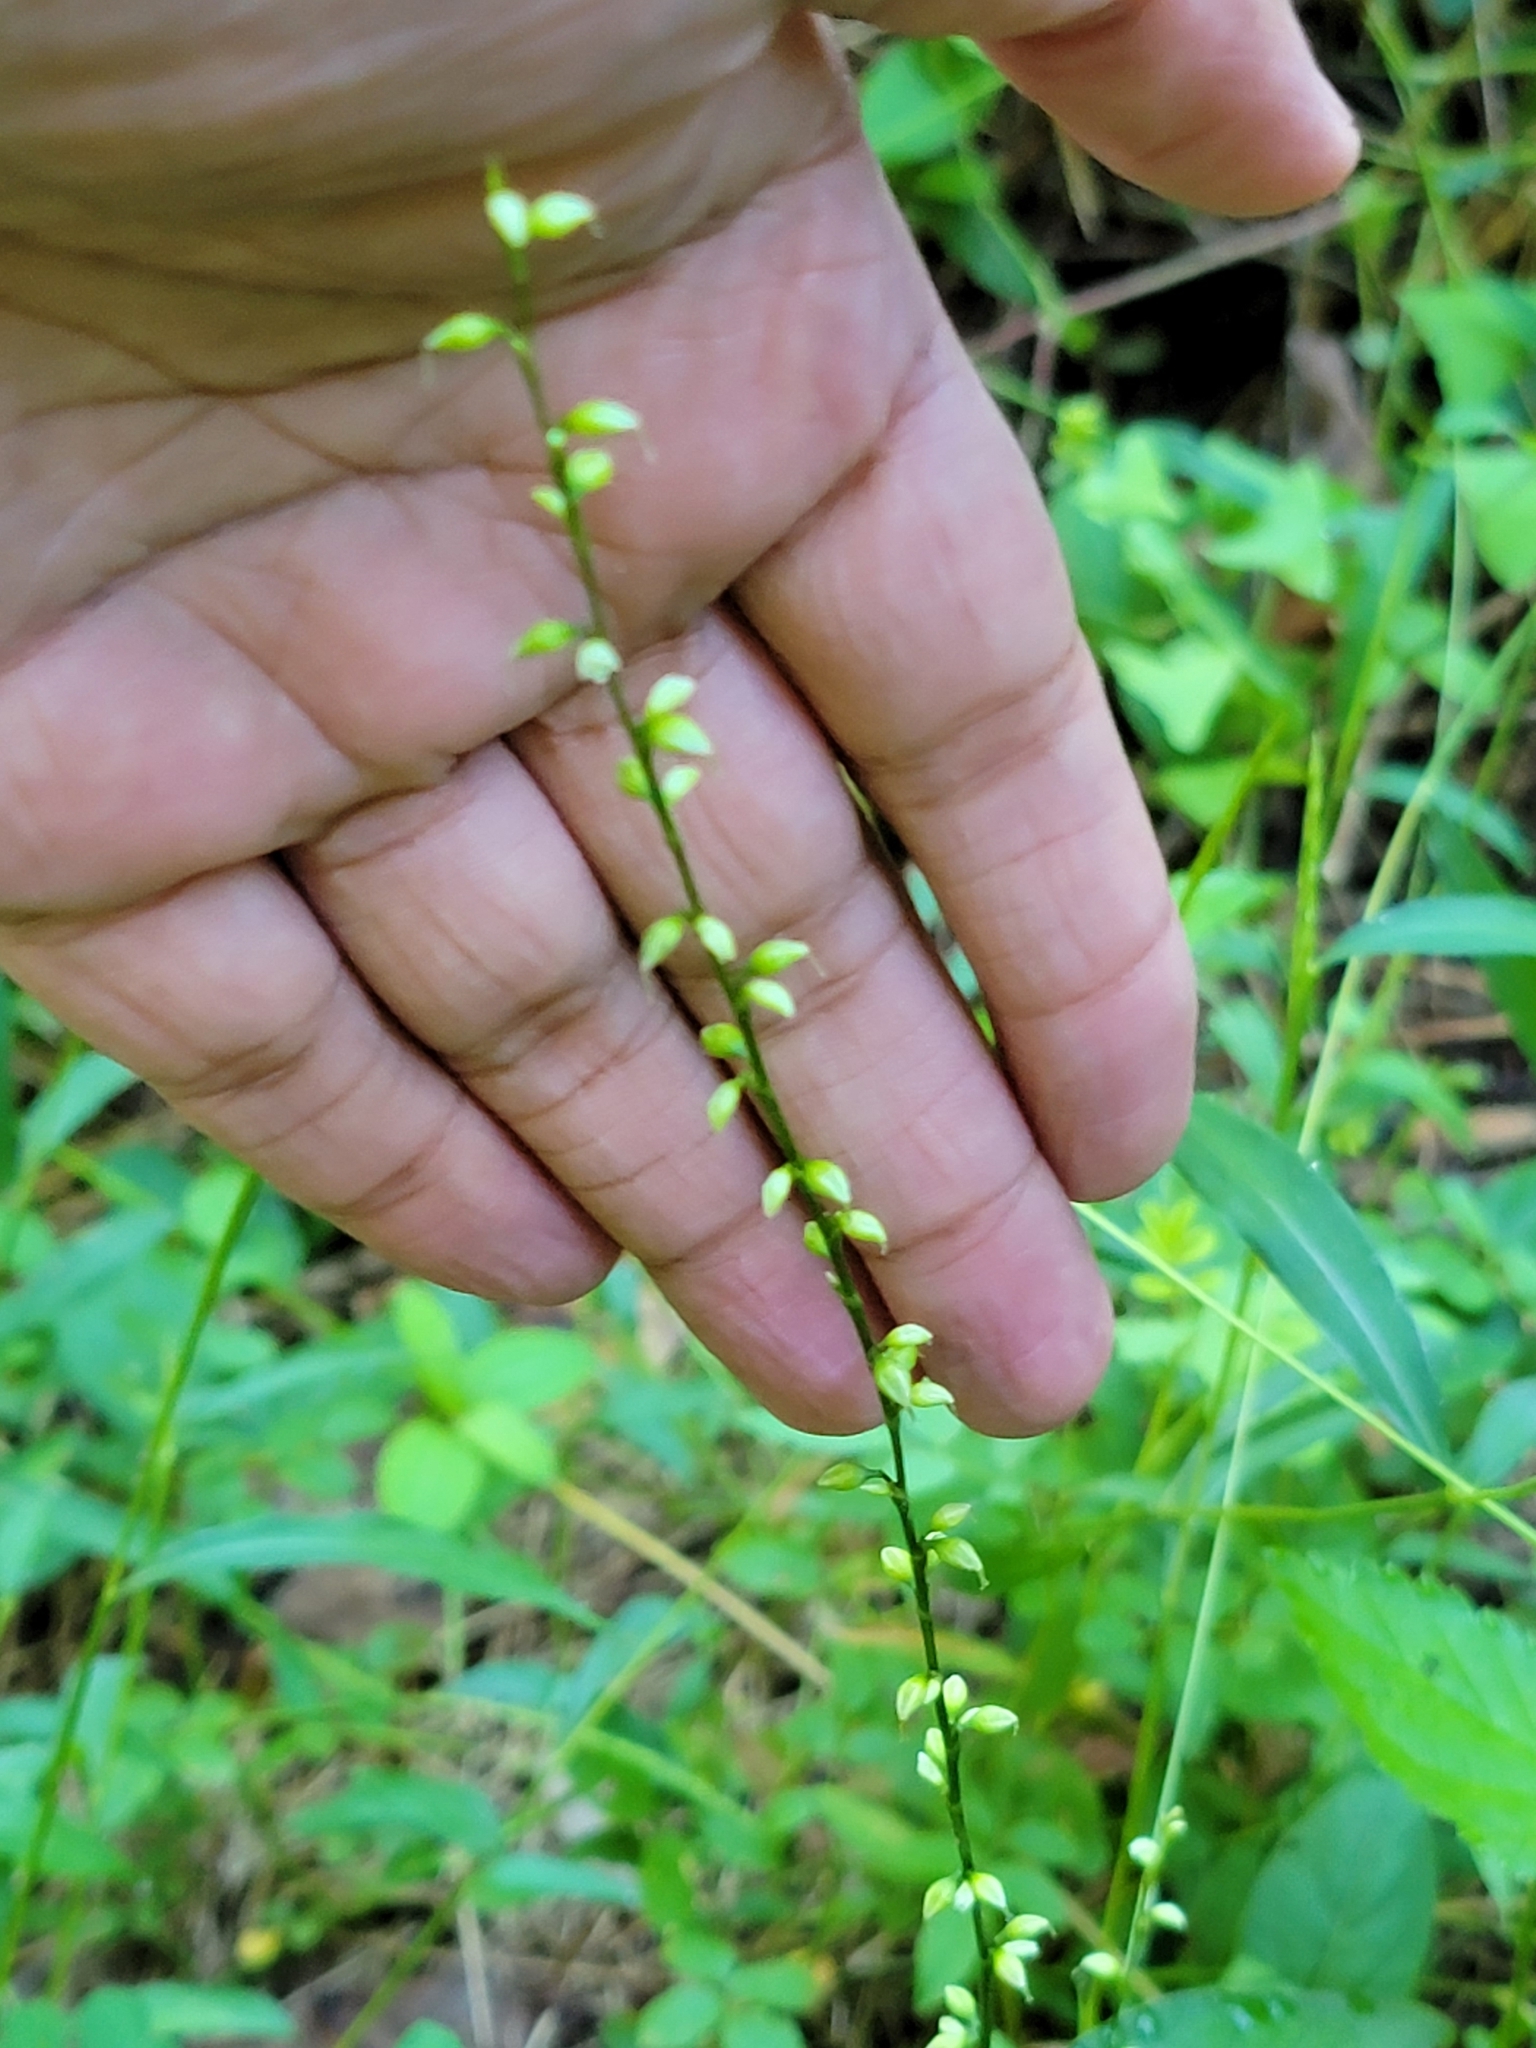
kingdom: Plantae
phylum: Tracheophyta
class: Magnoliopsida
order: Caryophyllales
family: Polygonaceae
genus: Persicaria
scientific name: Persicaria virginiana
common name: Jumpseed
